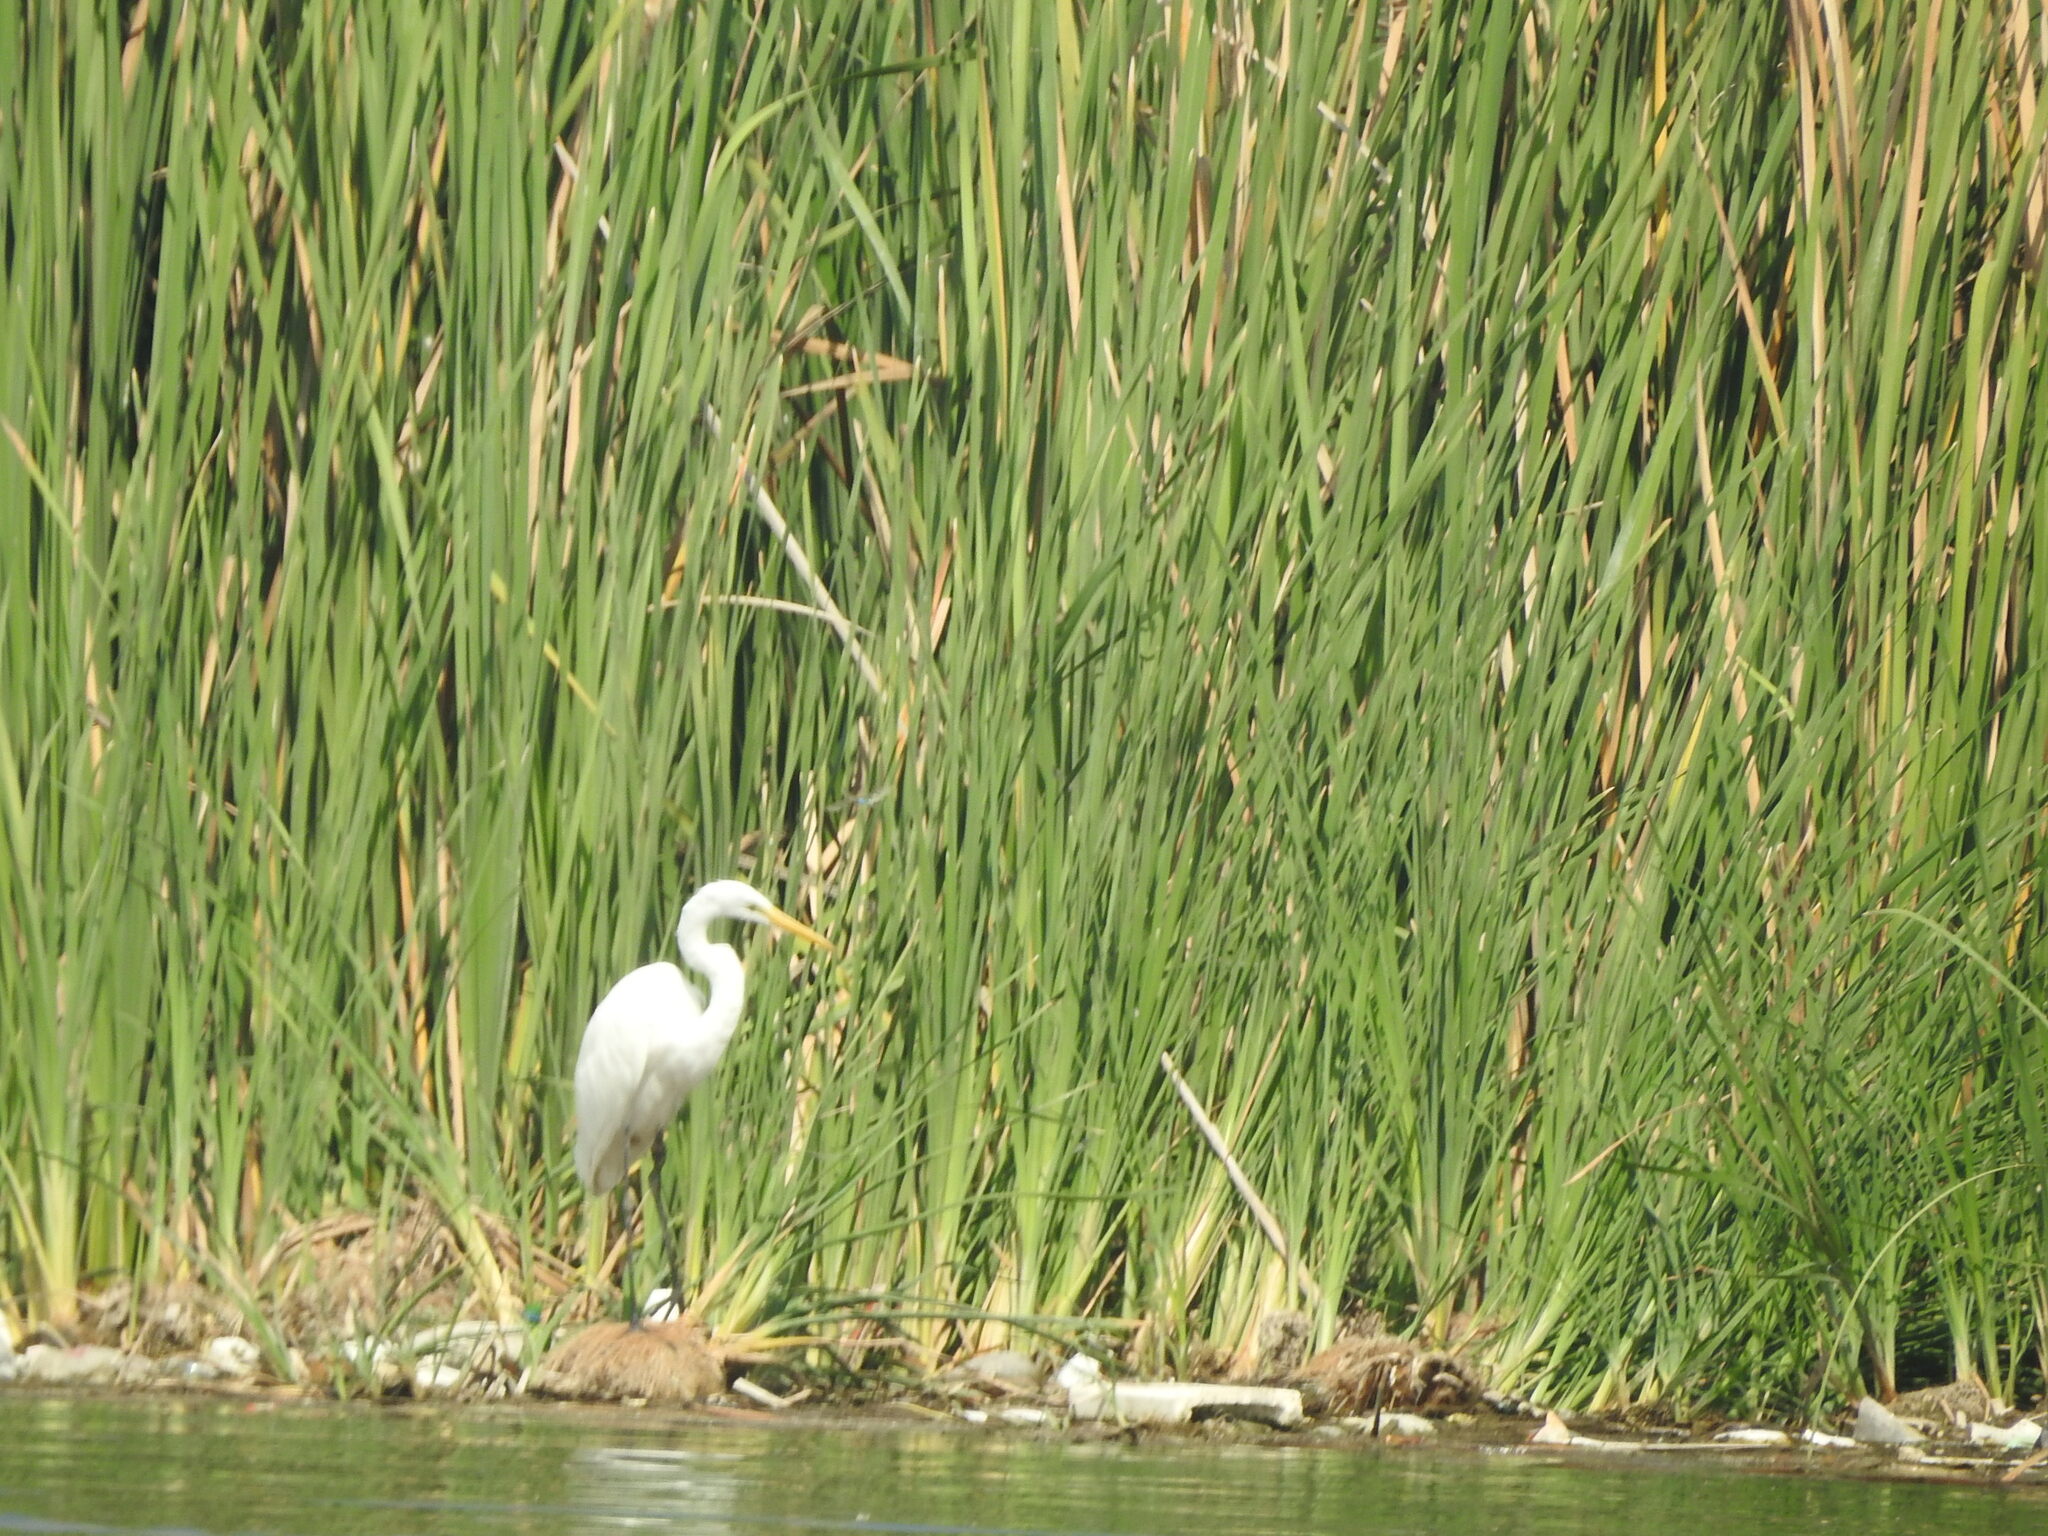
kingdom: Animalia
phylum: Chordata
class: Aves
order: Pelecaniformes
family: Ardeidae
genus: Ardea
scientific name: Ardea alba
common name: Great egret
